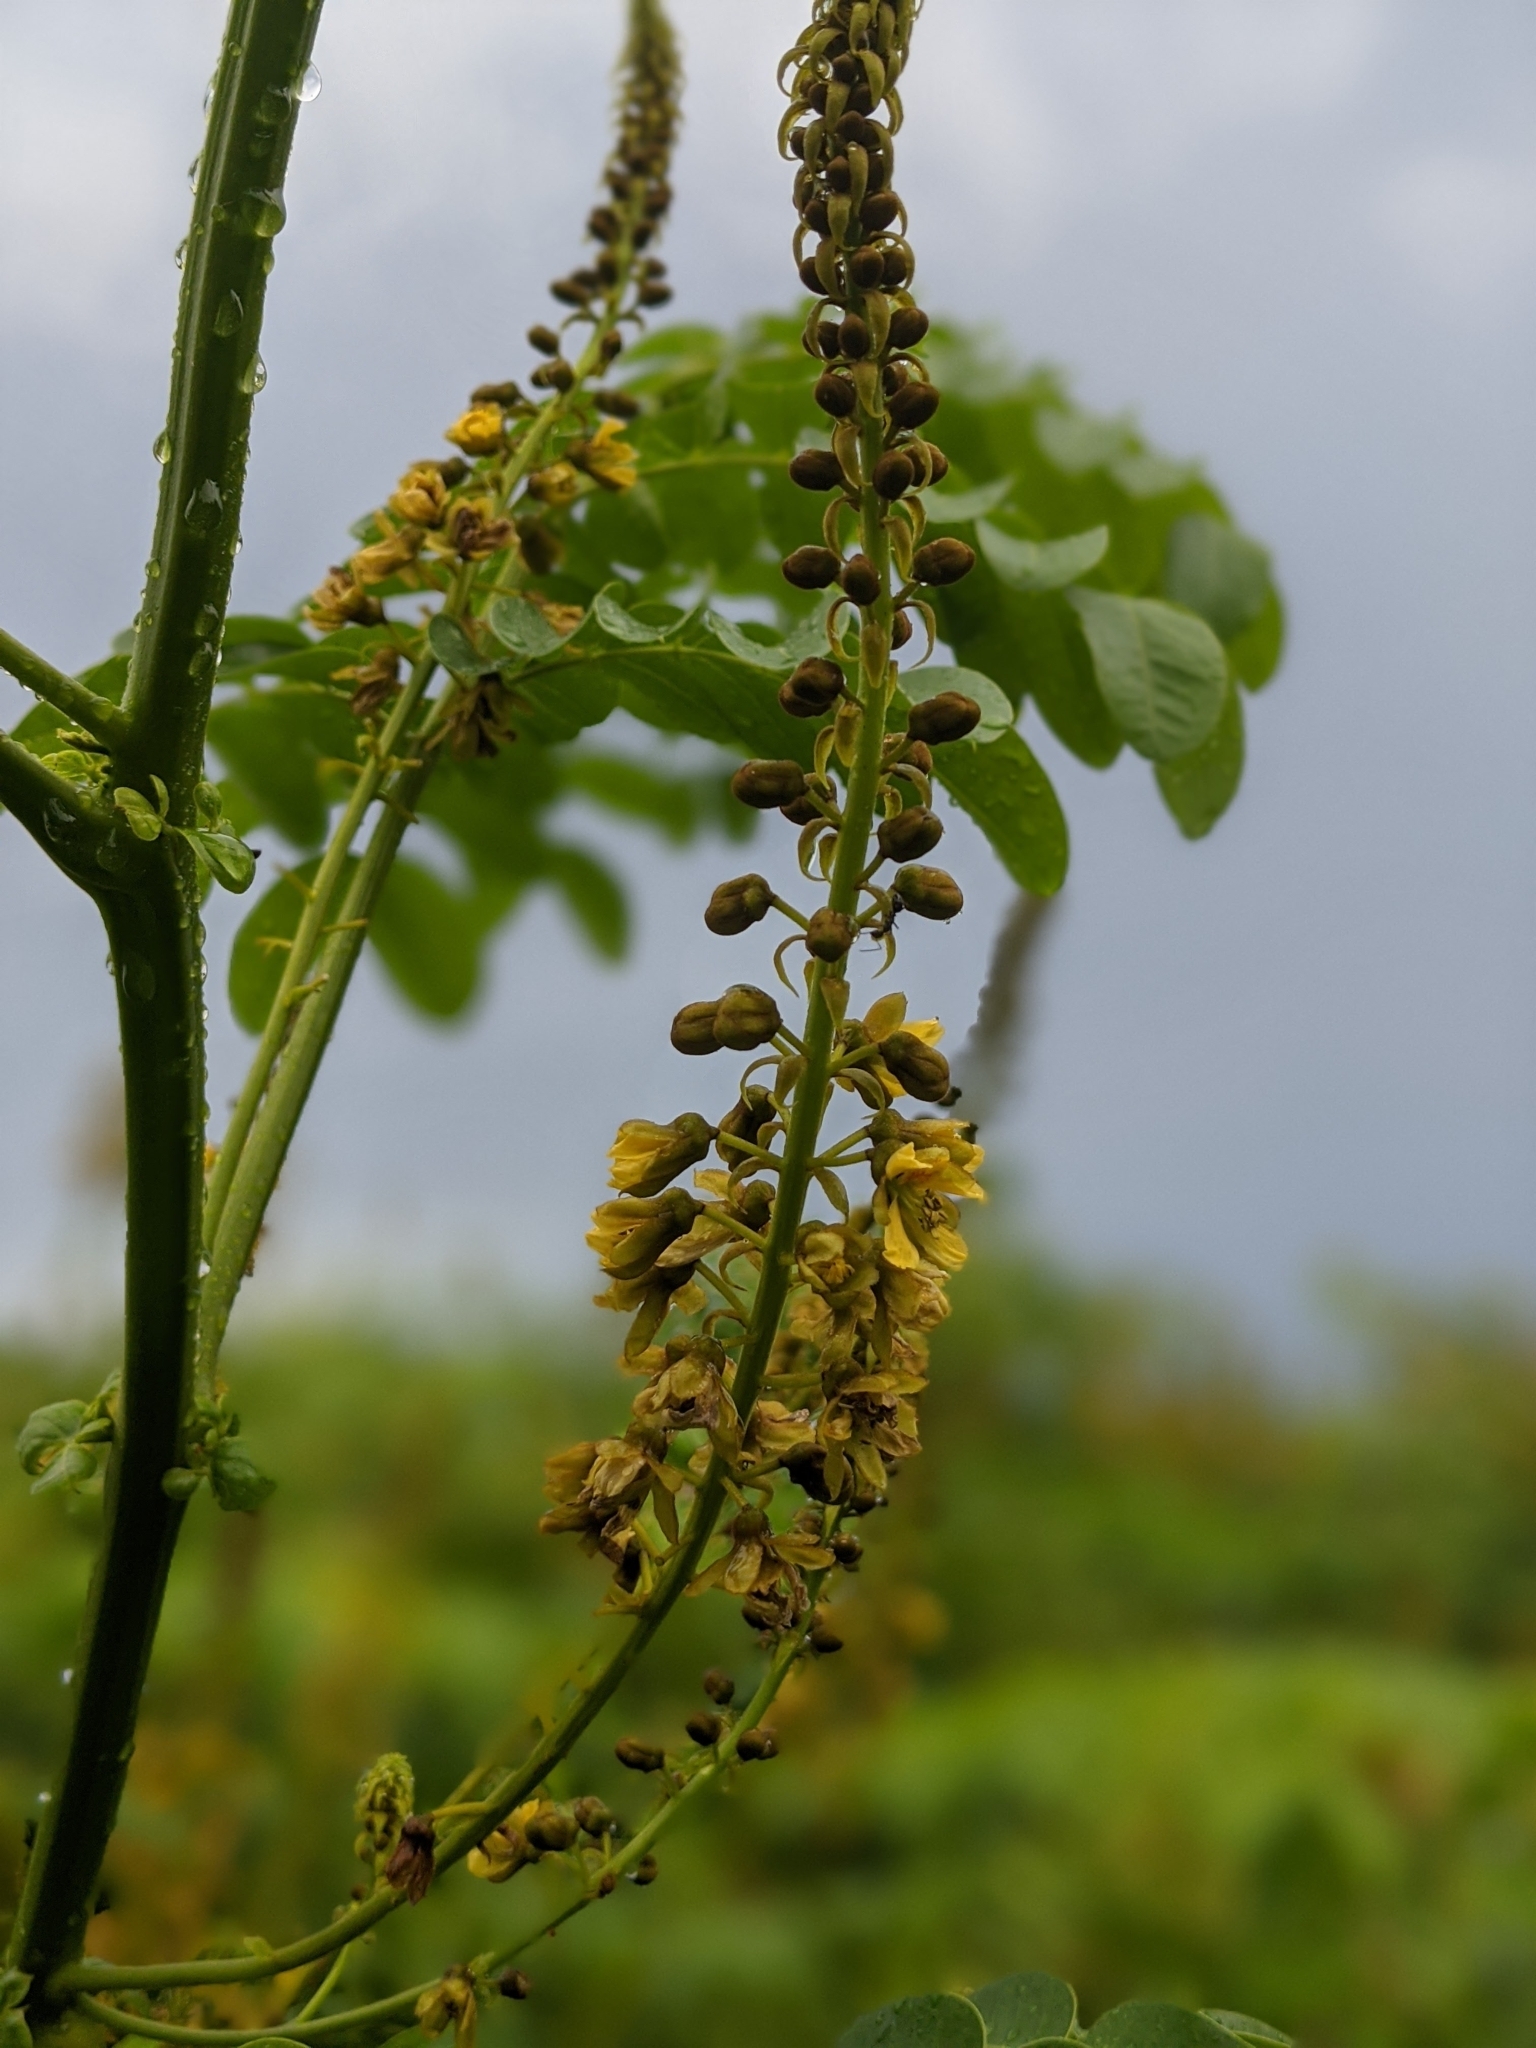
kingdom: Plantae
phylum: Tracheophyta
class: Magnoliopsida
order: Fabales
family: Fabaceae
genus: Guilandina
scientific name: Guilandina bonduc
